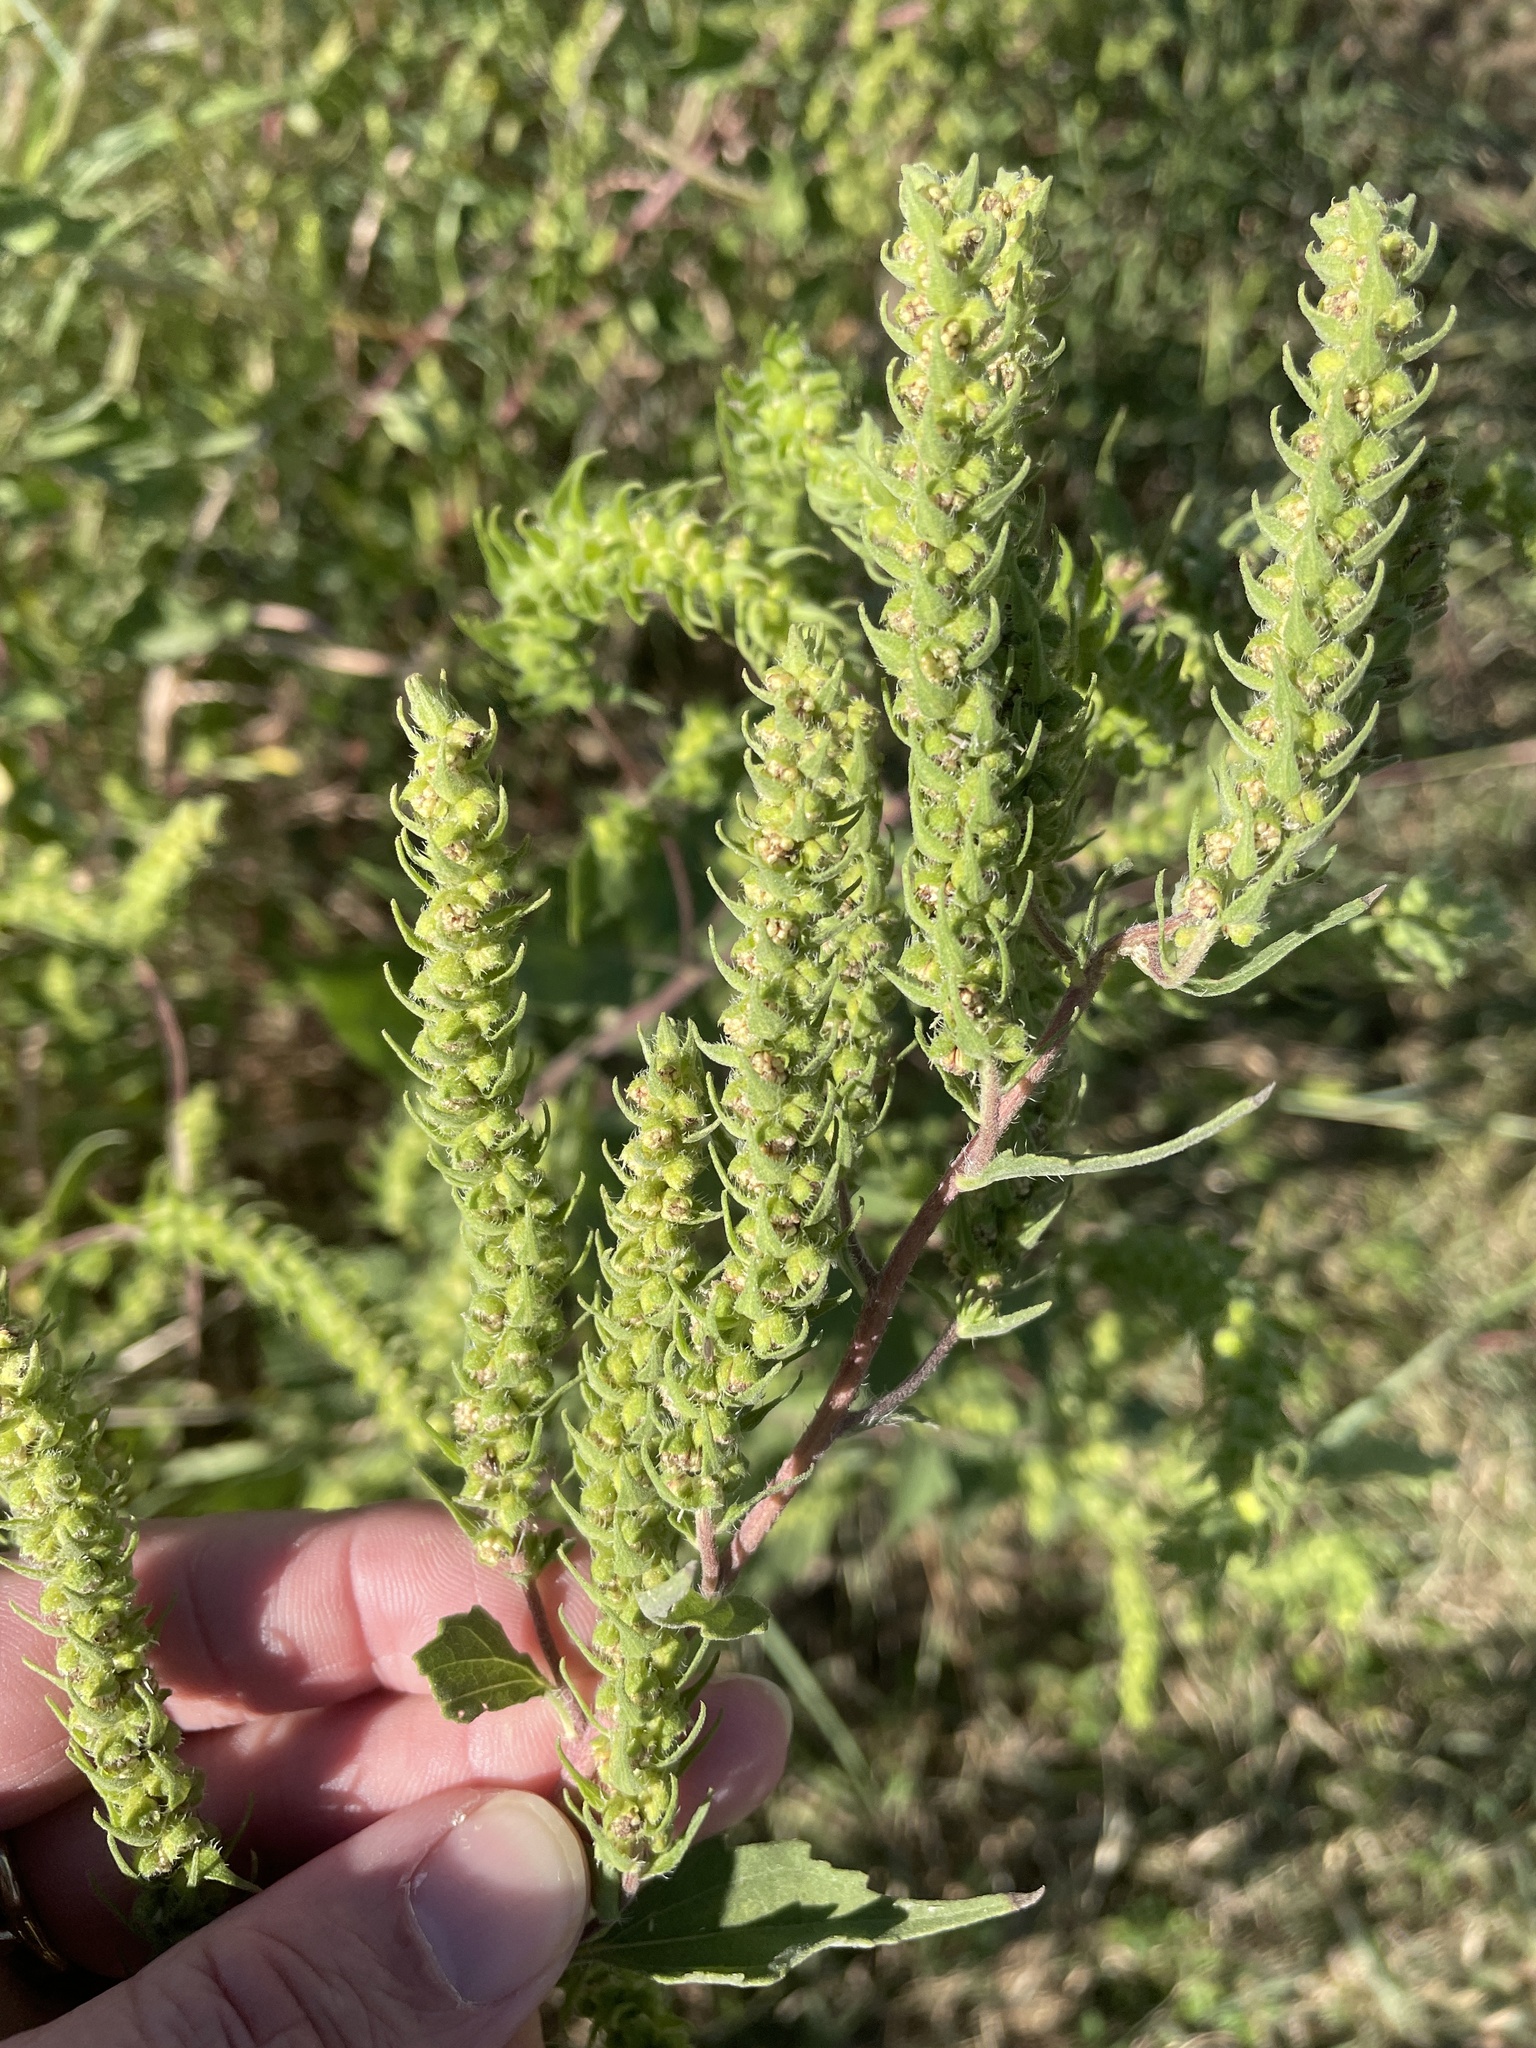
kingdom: Plantae
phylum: Tracheophyta
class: Magnoliopsida
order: Asterales
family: Asteraceae
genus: Iva
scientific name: Iva annua
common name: Marsh-elder
